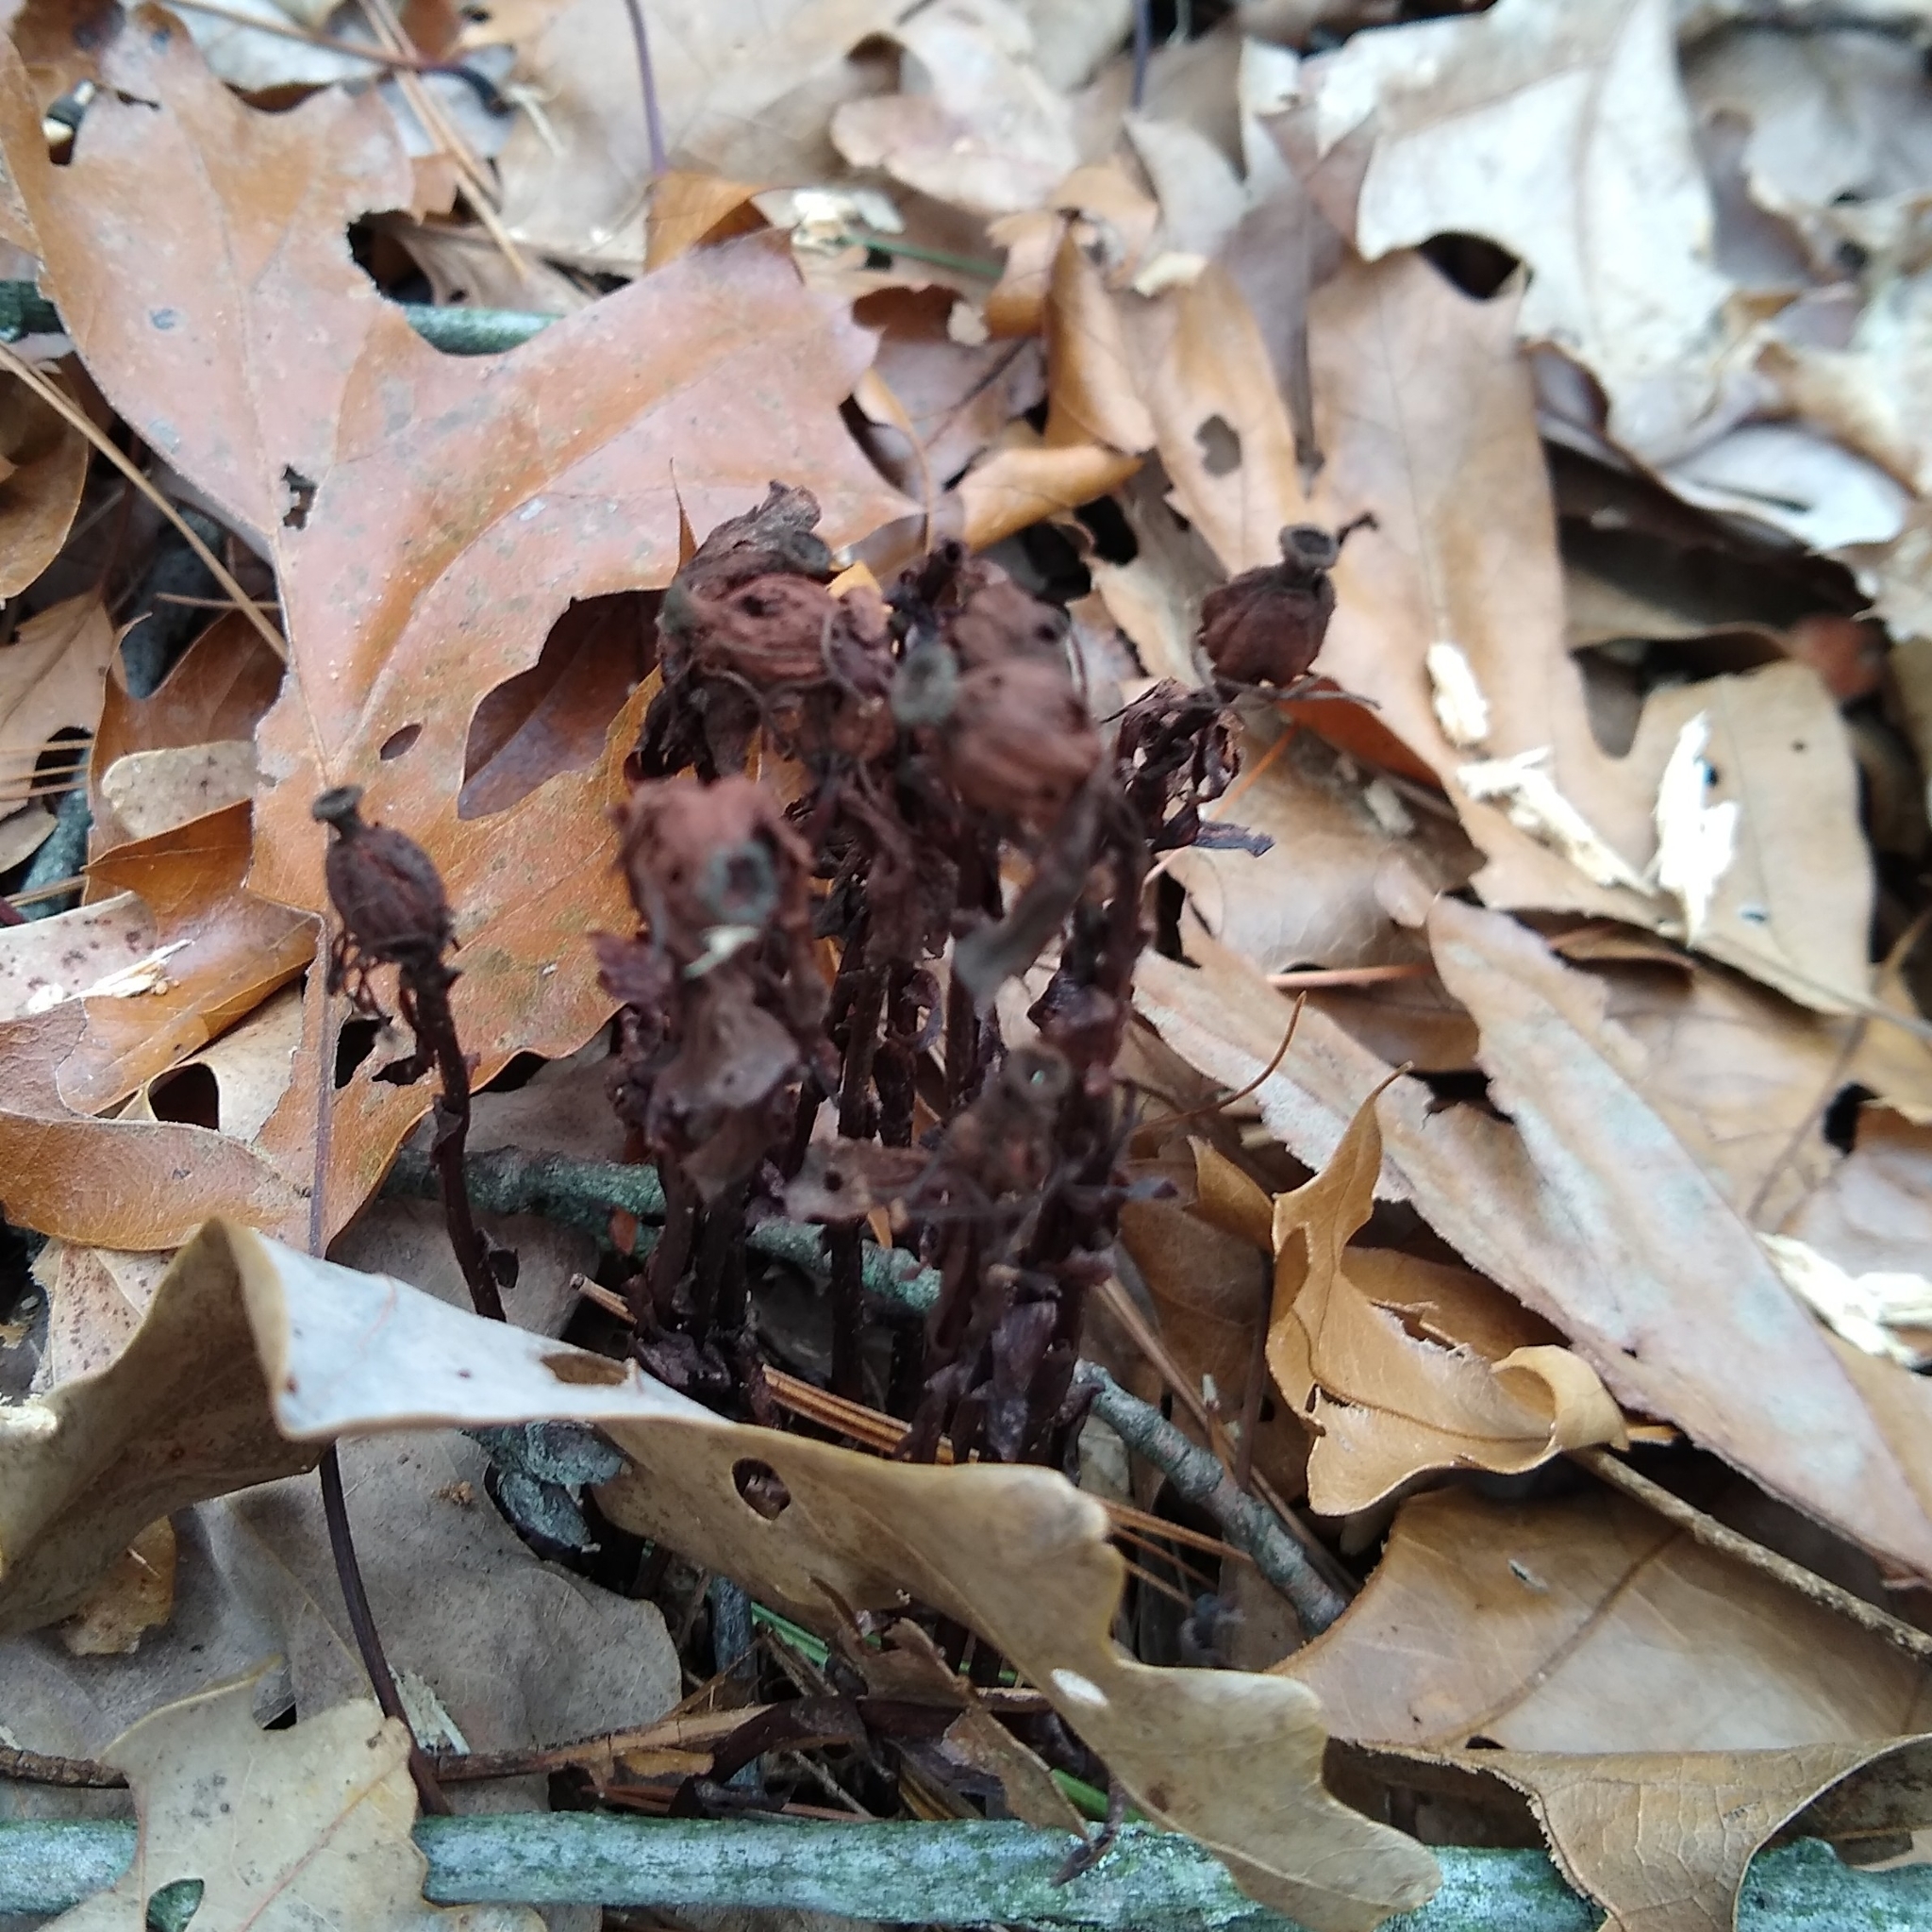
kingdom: Plantae
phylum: Tracheophyta
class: Magnoliopsida
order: Ericales
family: Ericaceae
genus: Monotropa
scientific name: Monotropa uniflora
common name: Convulsion root
